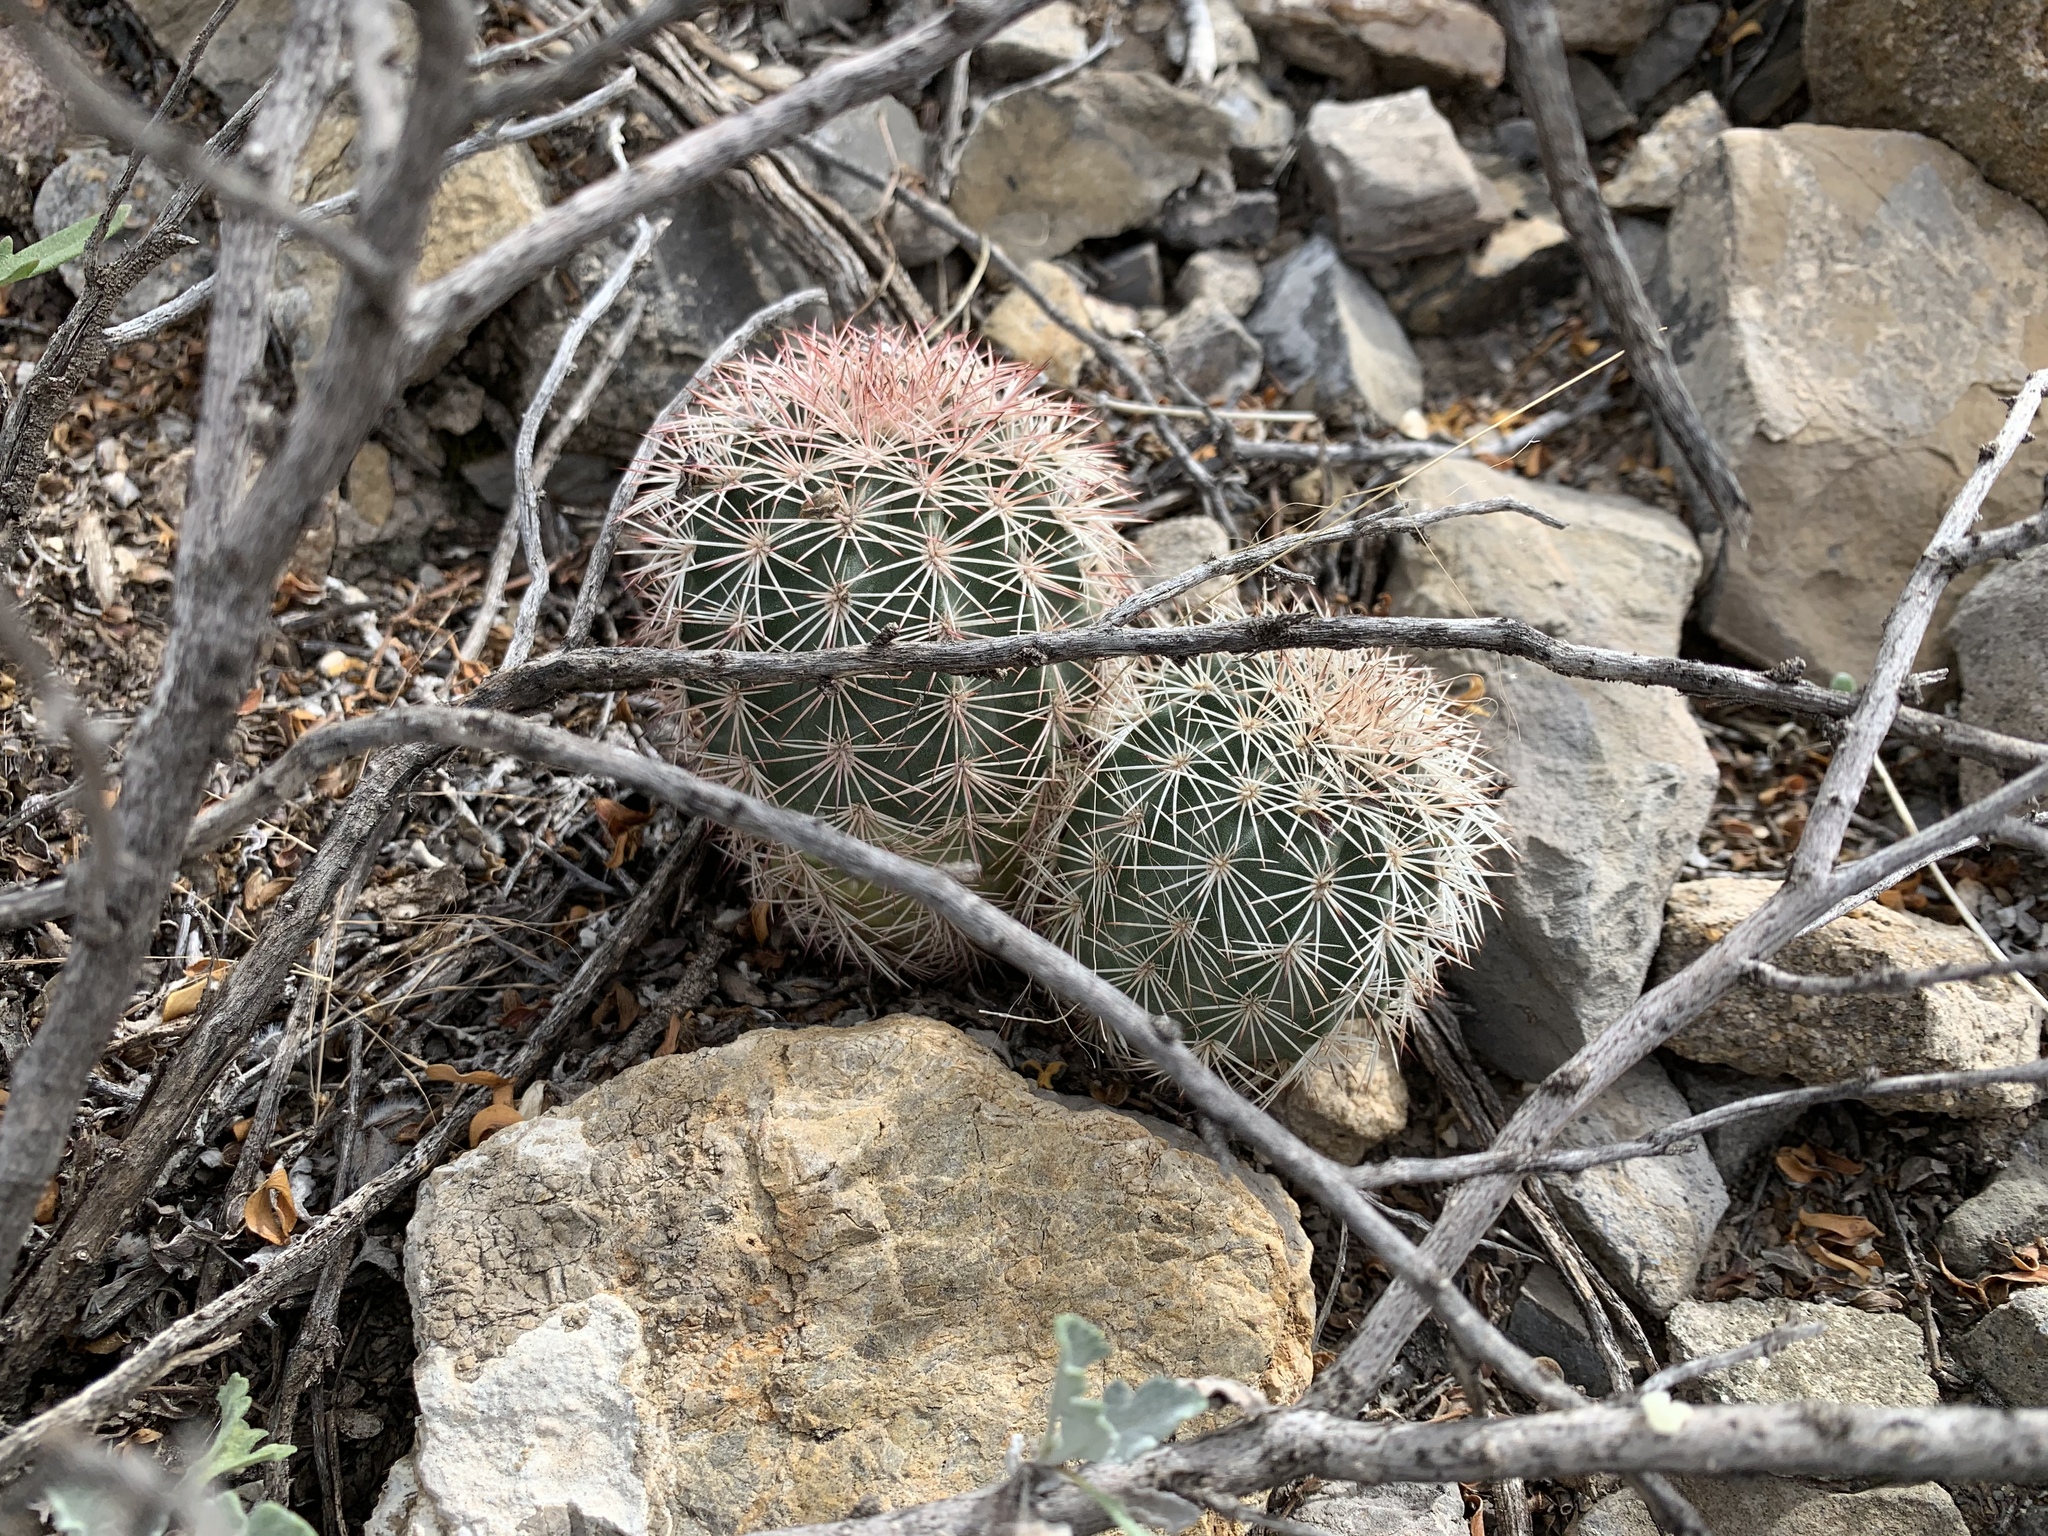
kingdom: Plantae
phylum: Tracheophyta
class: Magnoliopsida
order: Caryophyllales
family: Cactaceae
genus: Echinocereus
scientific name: Echinocereus dasyacanthus
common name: Spiny hedgehog cactus
